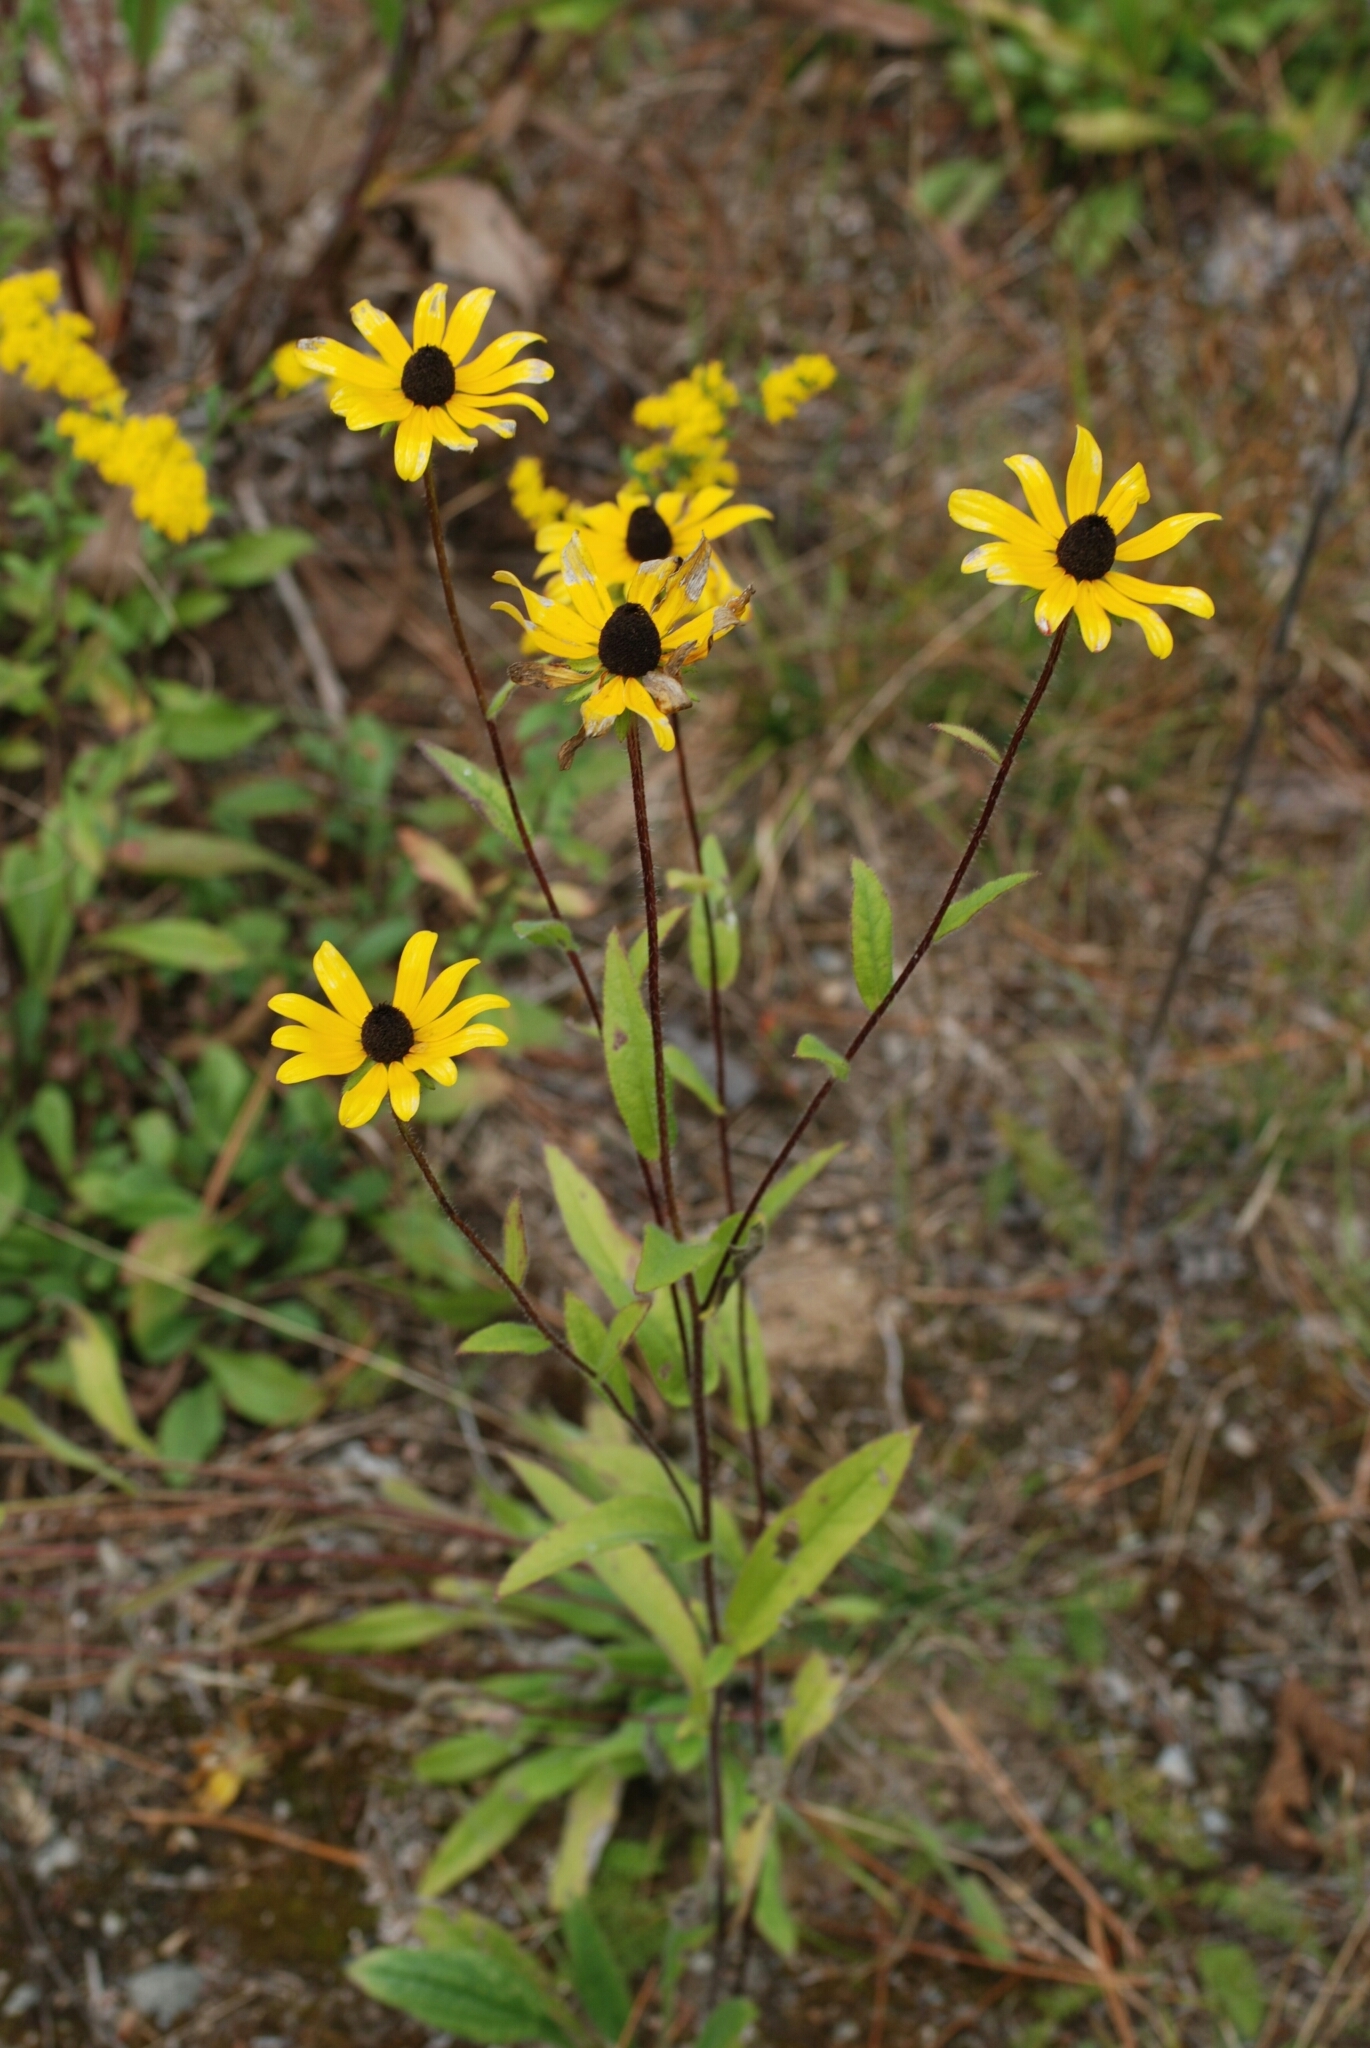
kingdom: Plantae
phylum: Tracheophyta
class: Magnoliopsida
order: Asterales
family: Asteraceae
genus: Rudbeckia
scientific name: Rudbeckia hirta
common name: Black-eyed-susan
